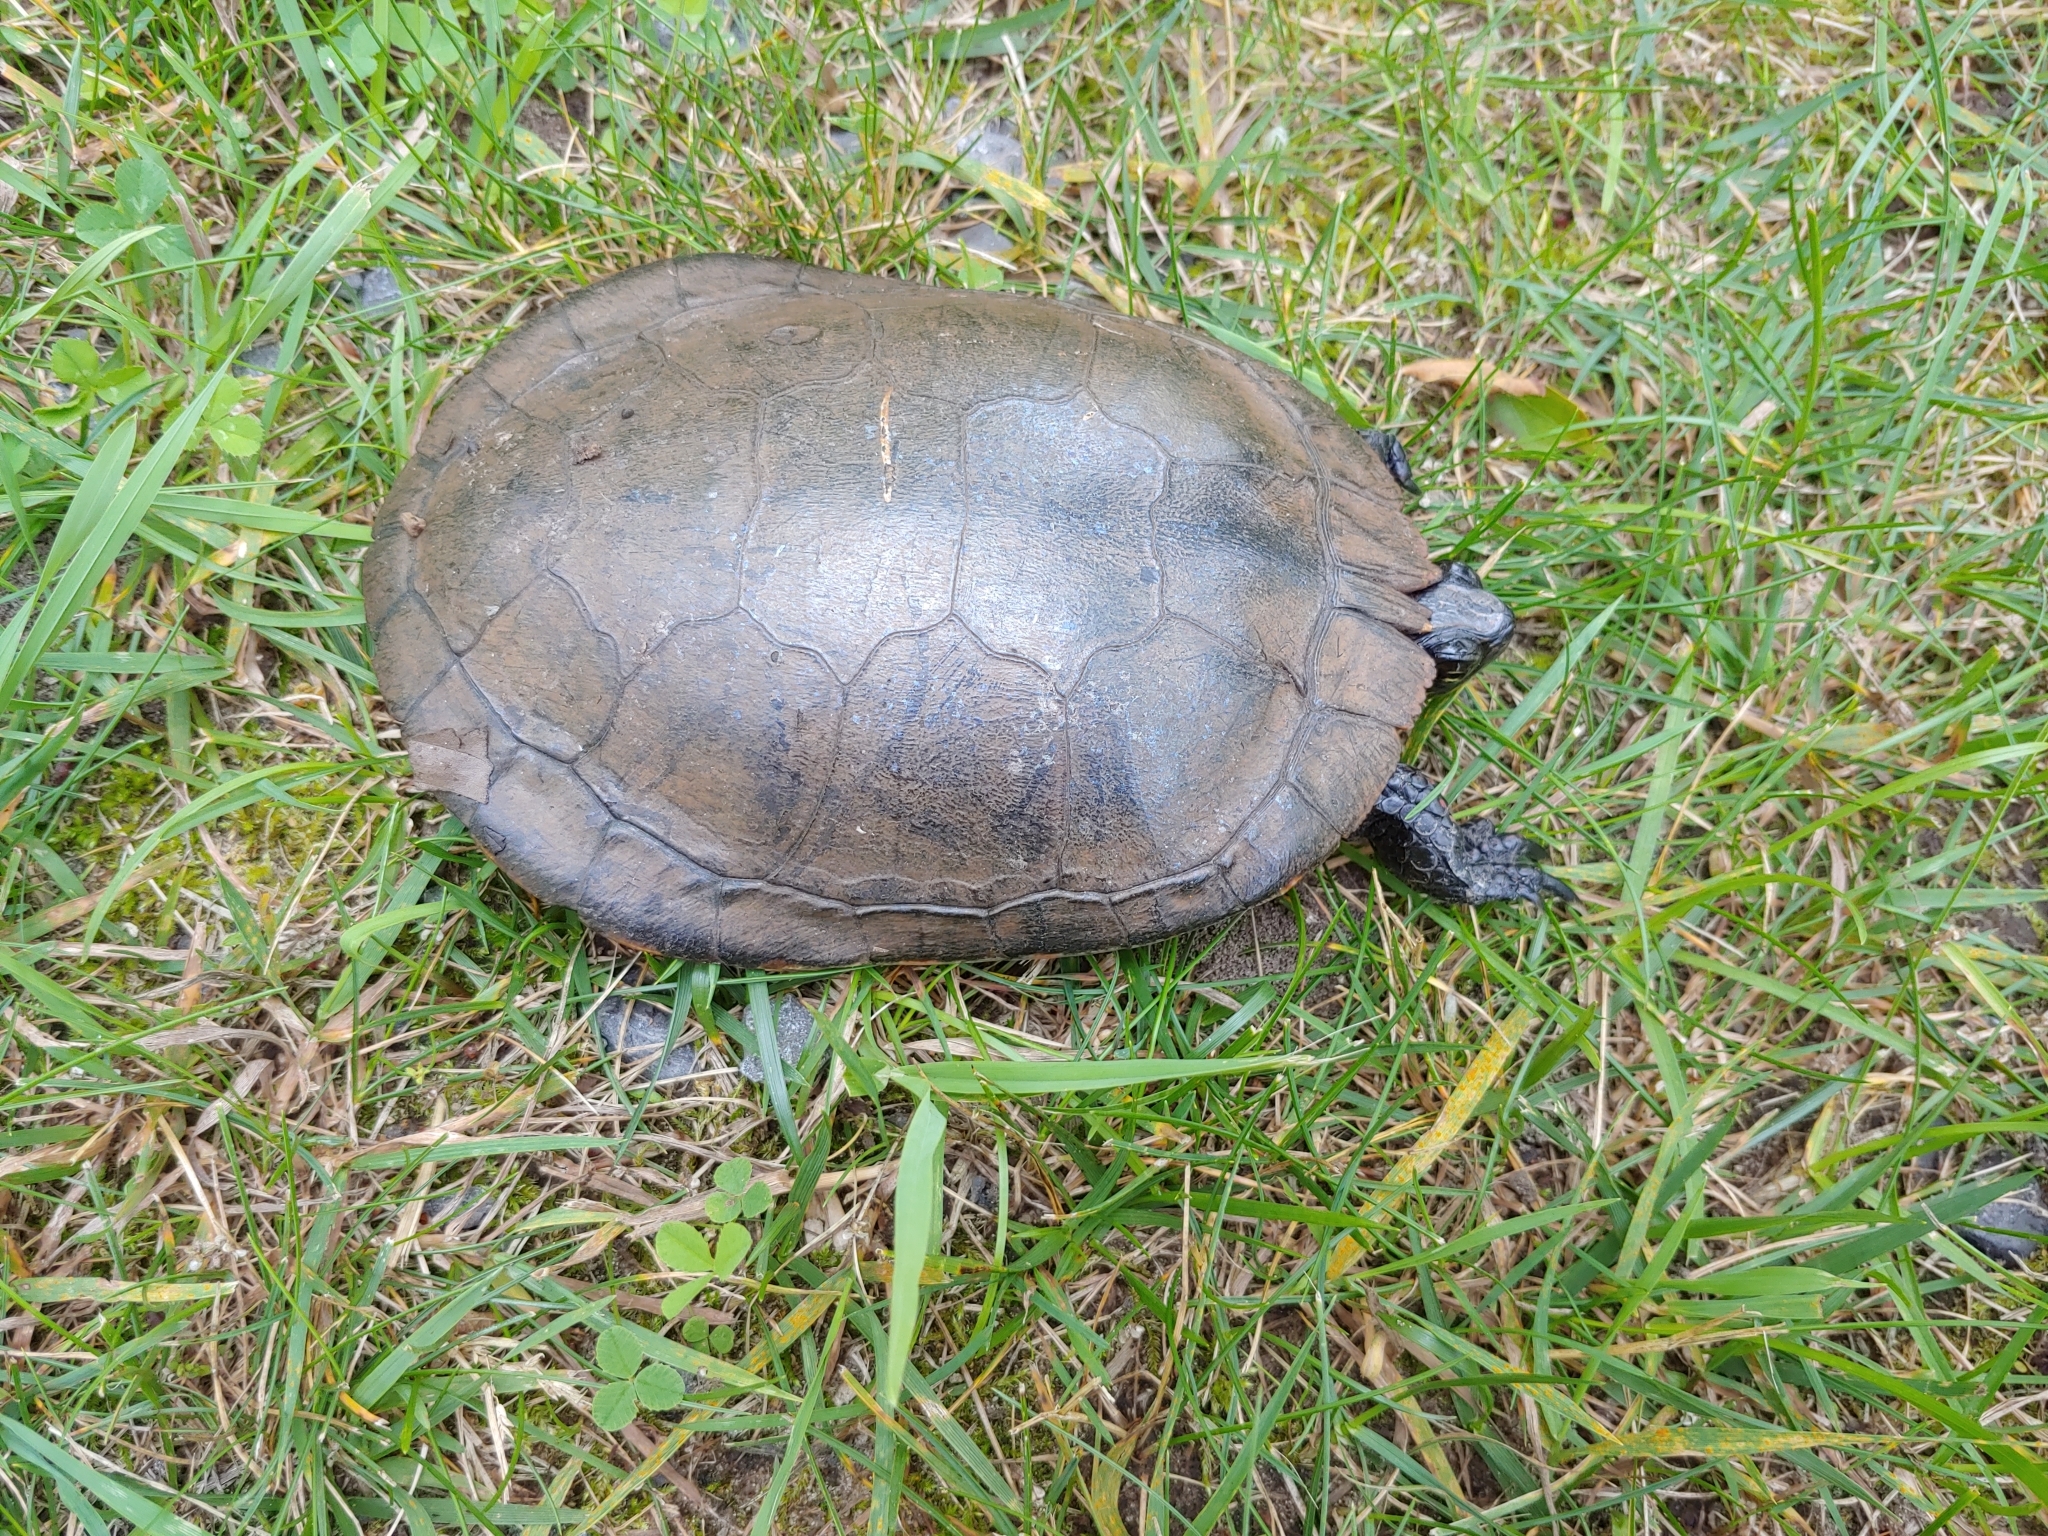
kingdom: Animalia
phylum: Chordata
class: Testudines
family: Emydidae
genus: Chrysemys
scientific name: Chrysemys picta
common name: Painted turtle
